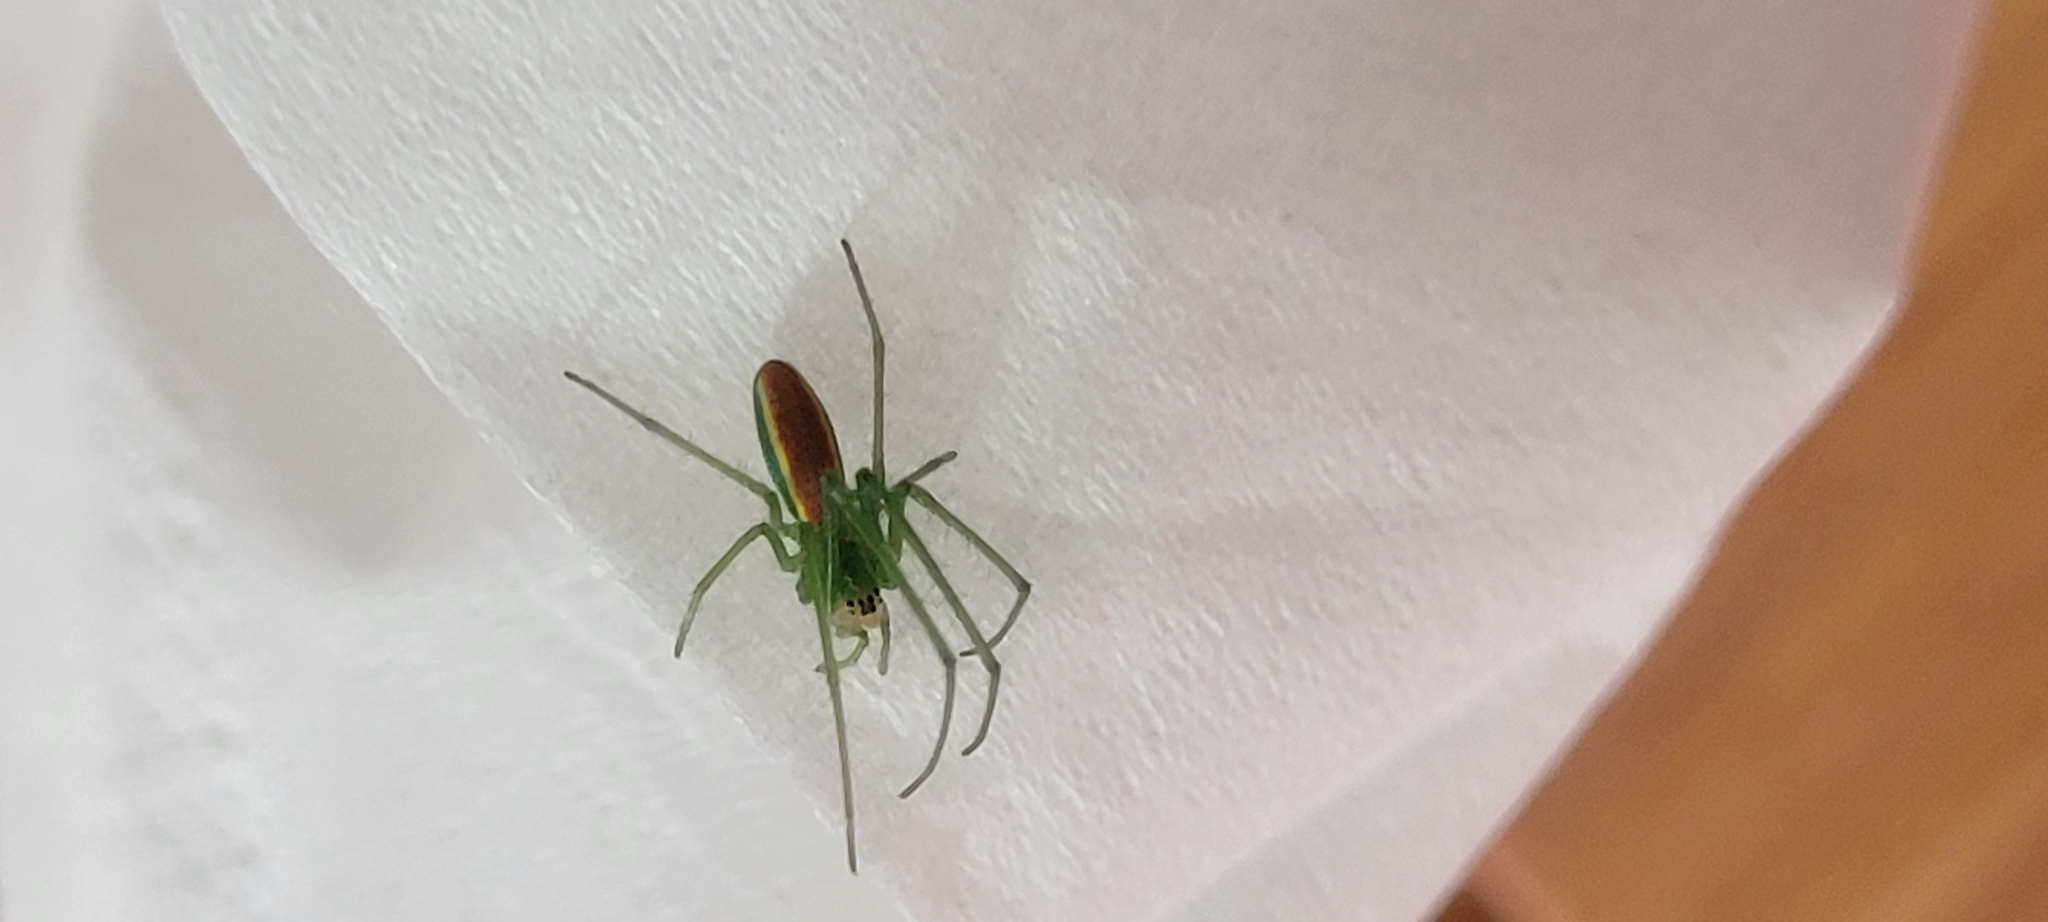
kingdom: Animalia
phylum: Arthropoda
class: Arachnida
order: Araneae
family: Tetragnathidae
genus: Tetragnatha
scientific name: Tetragnatha viridis
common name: Green long-jawed spider
